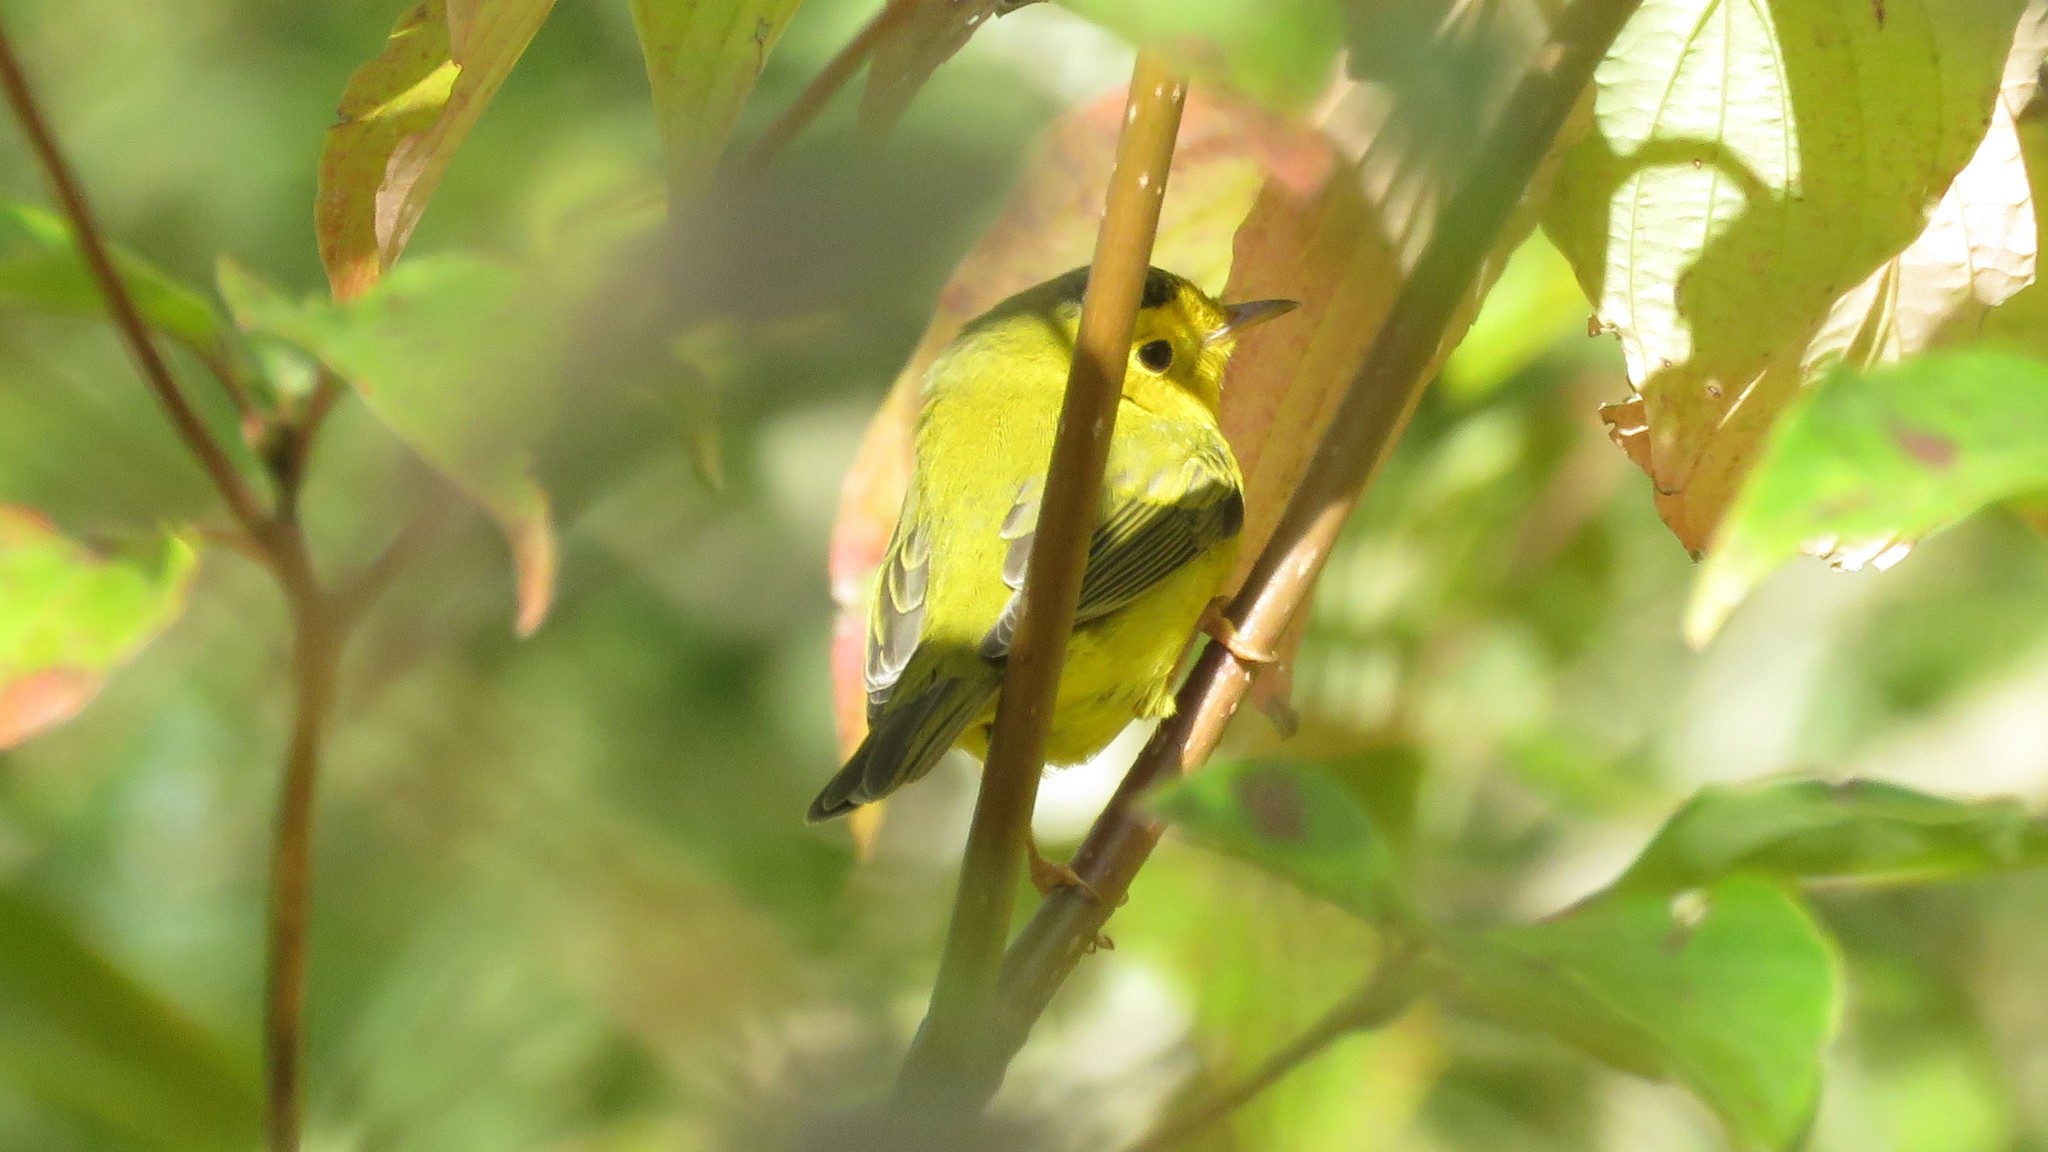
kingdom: Animalia
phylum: Chordata
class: Aves
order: Passeriformes
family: Parulidae
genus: Cardellina
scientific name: Cardellina pusilla
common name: Wilson's warbler
